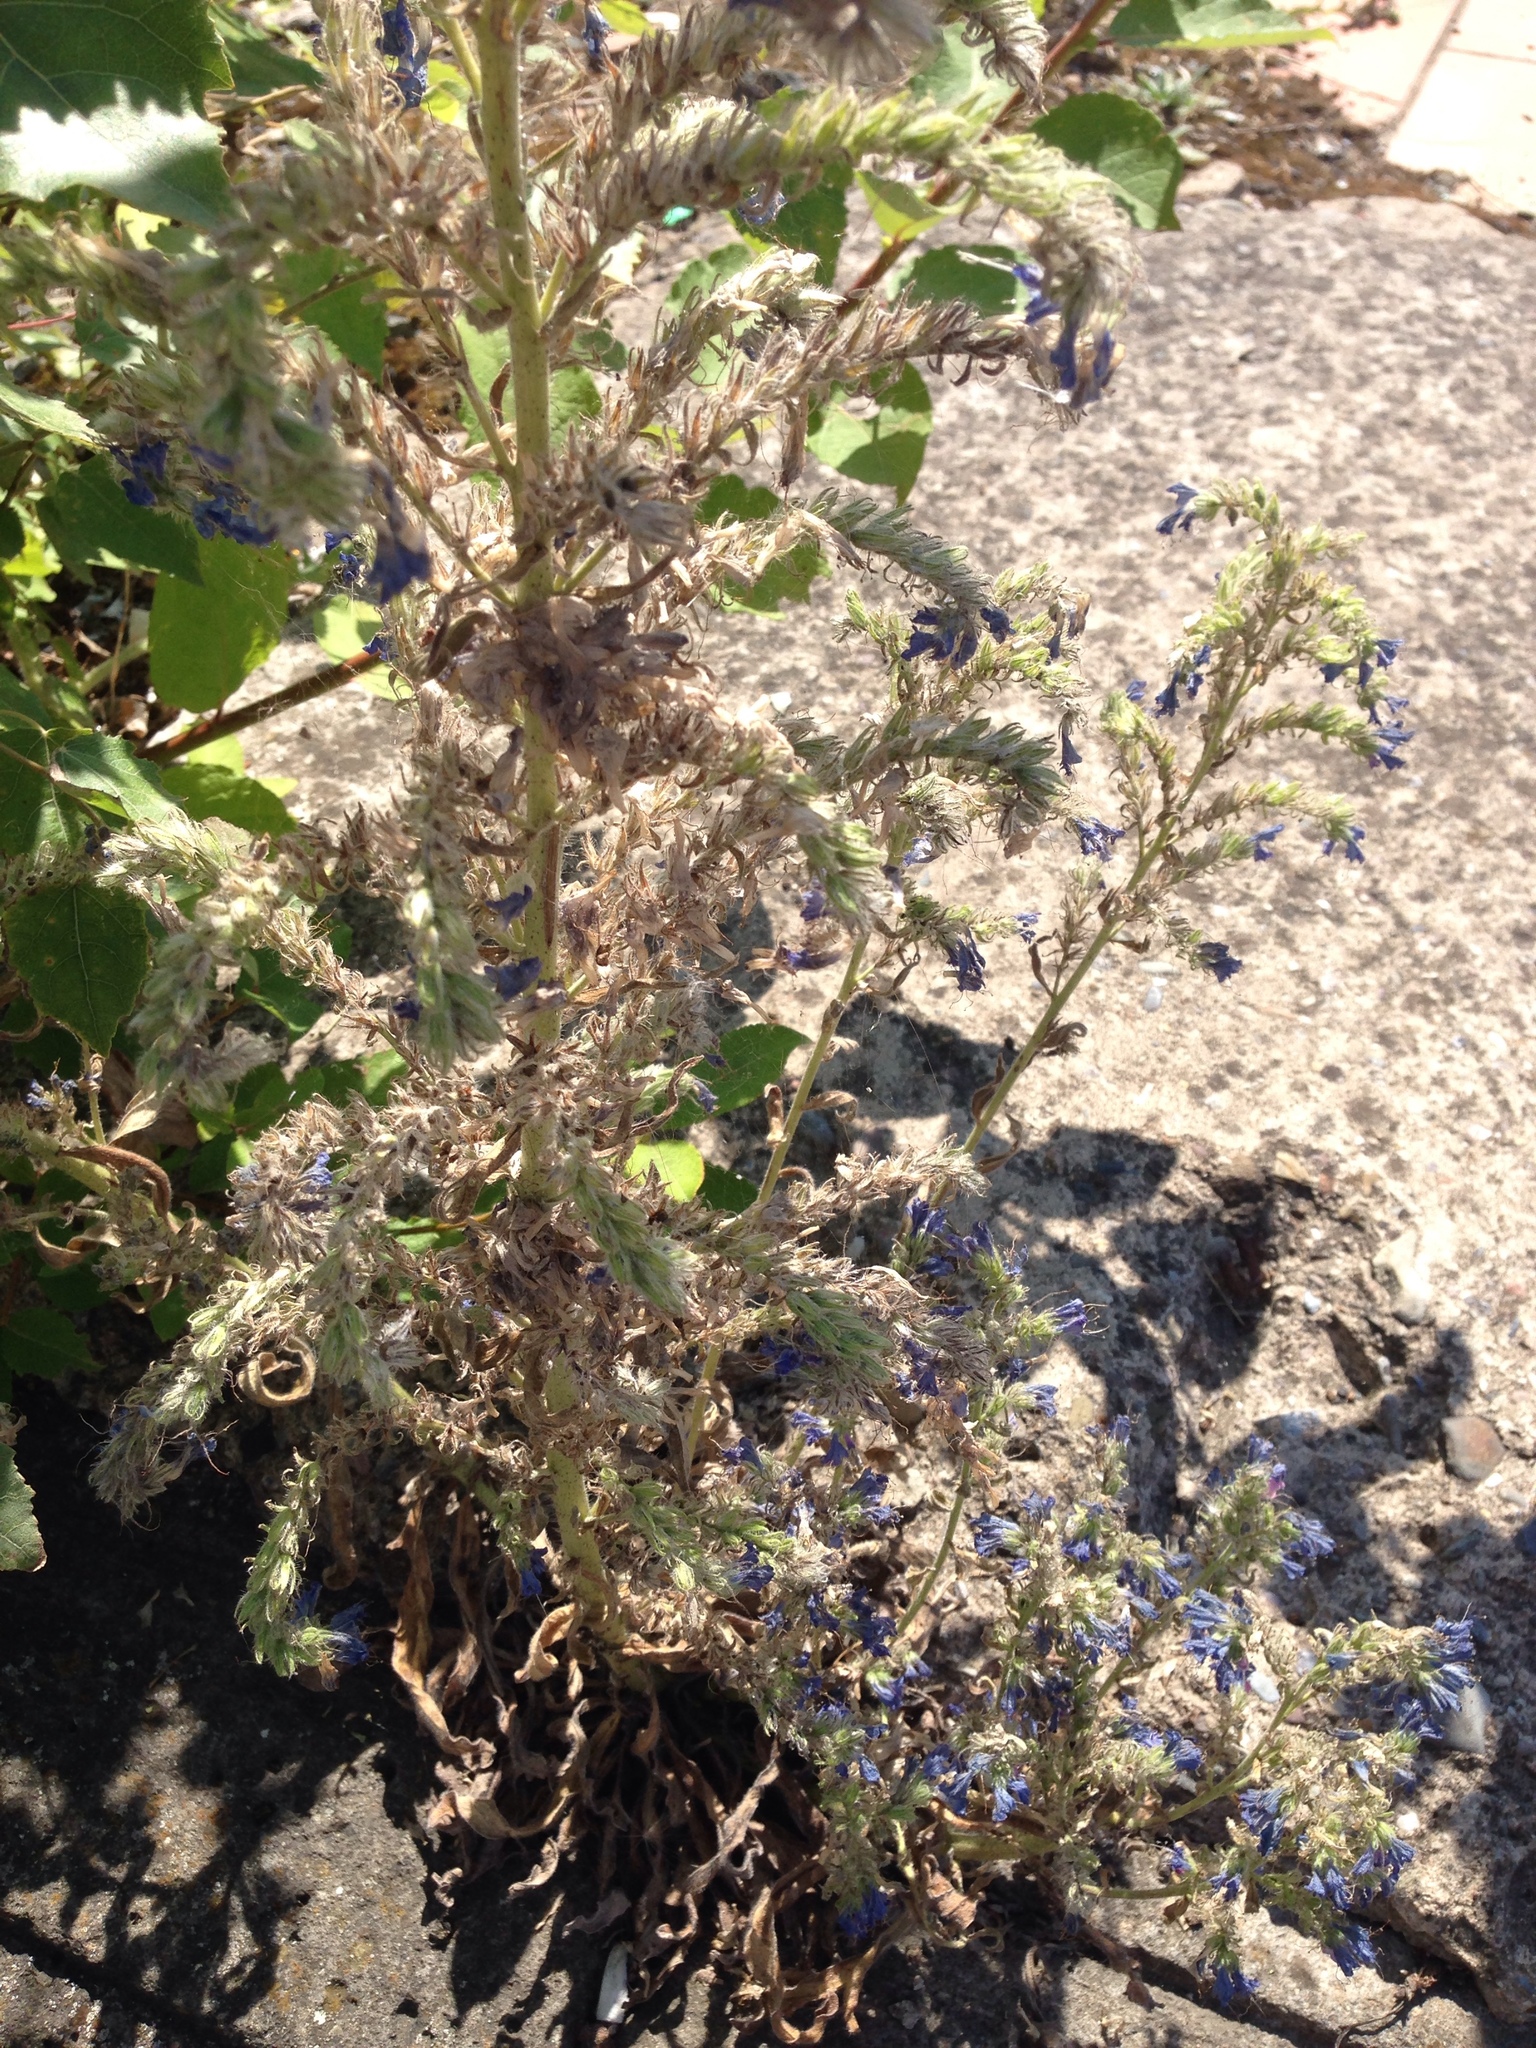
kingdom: Plantae
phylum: Tracheophyta
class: Magnoliopsida
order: Boraginales
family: Boraginaceae
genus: Echium
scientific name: Echium vulgare
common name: Common viper's bugloss
